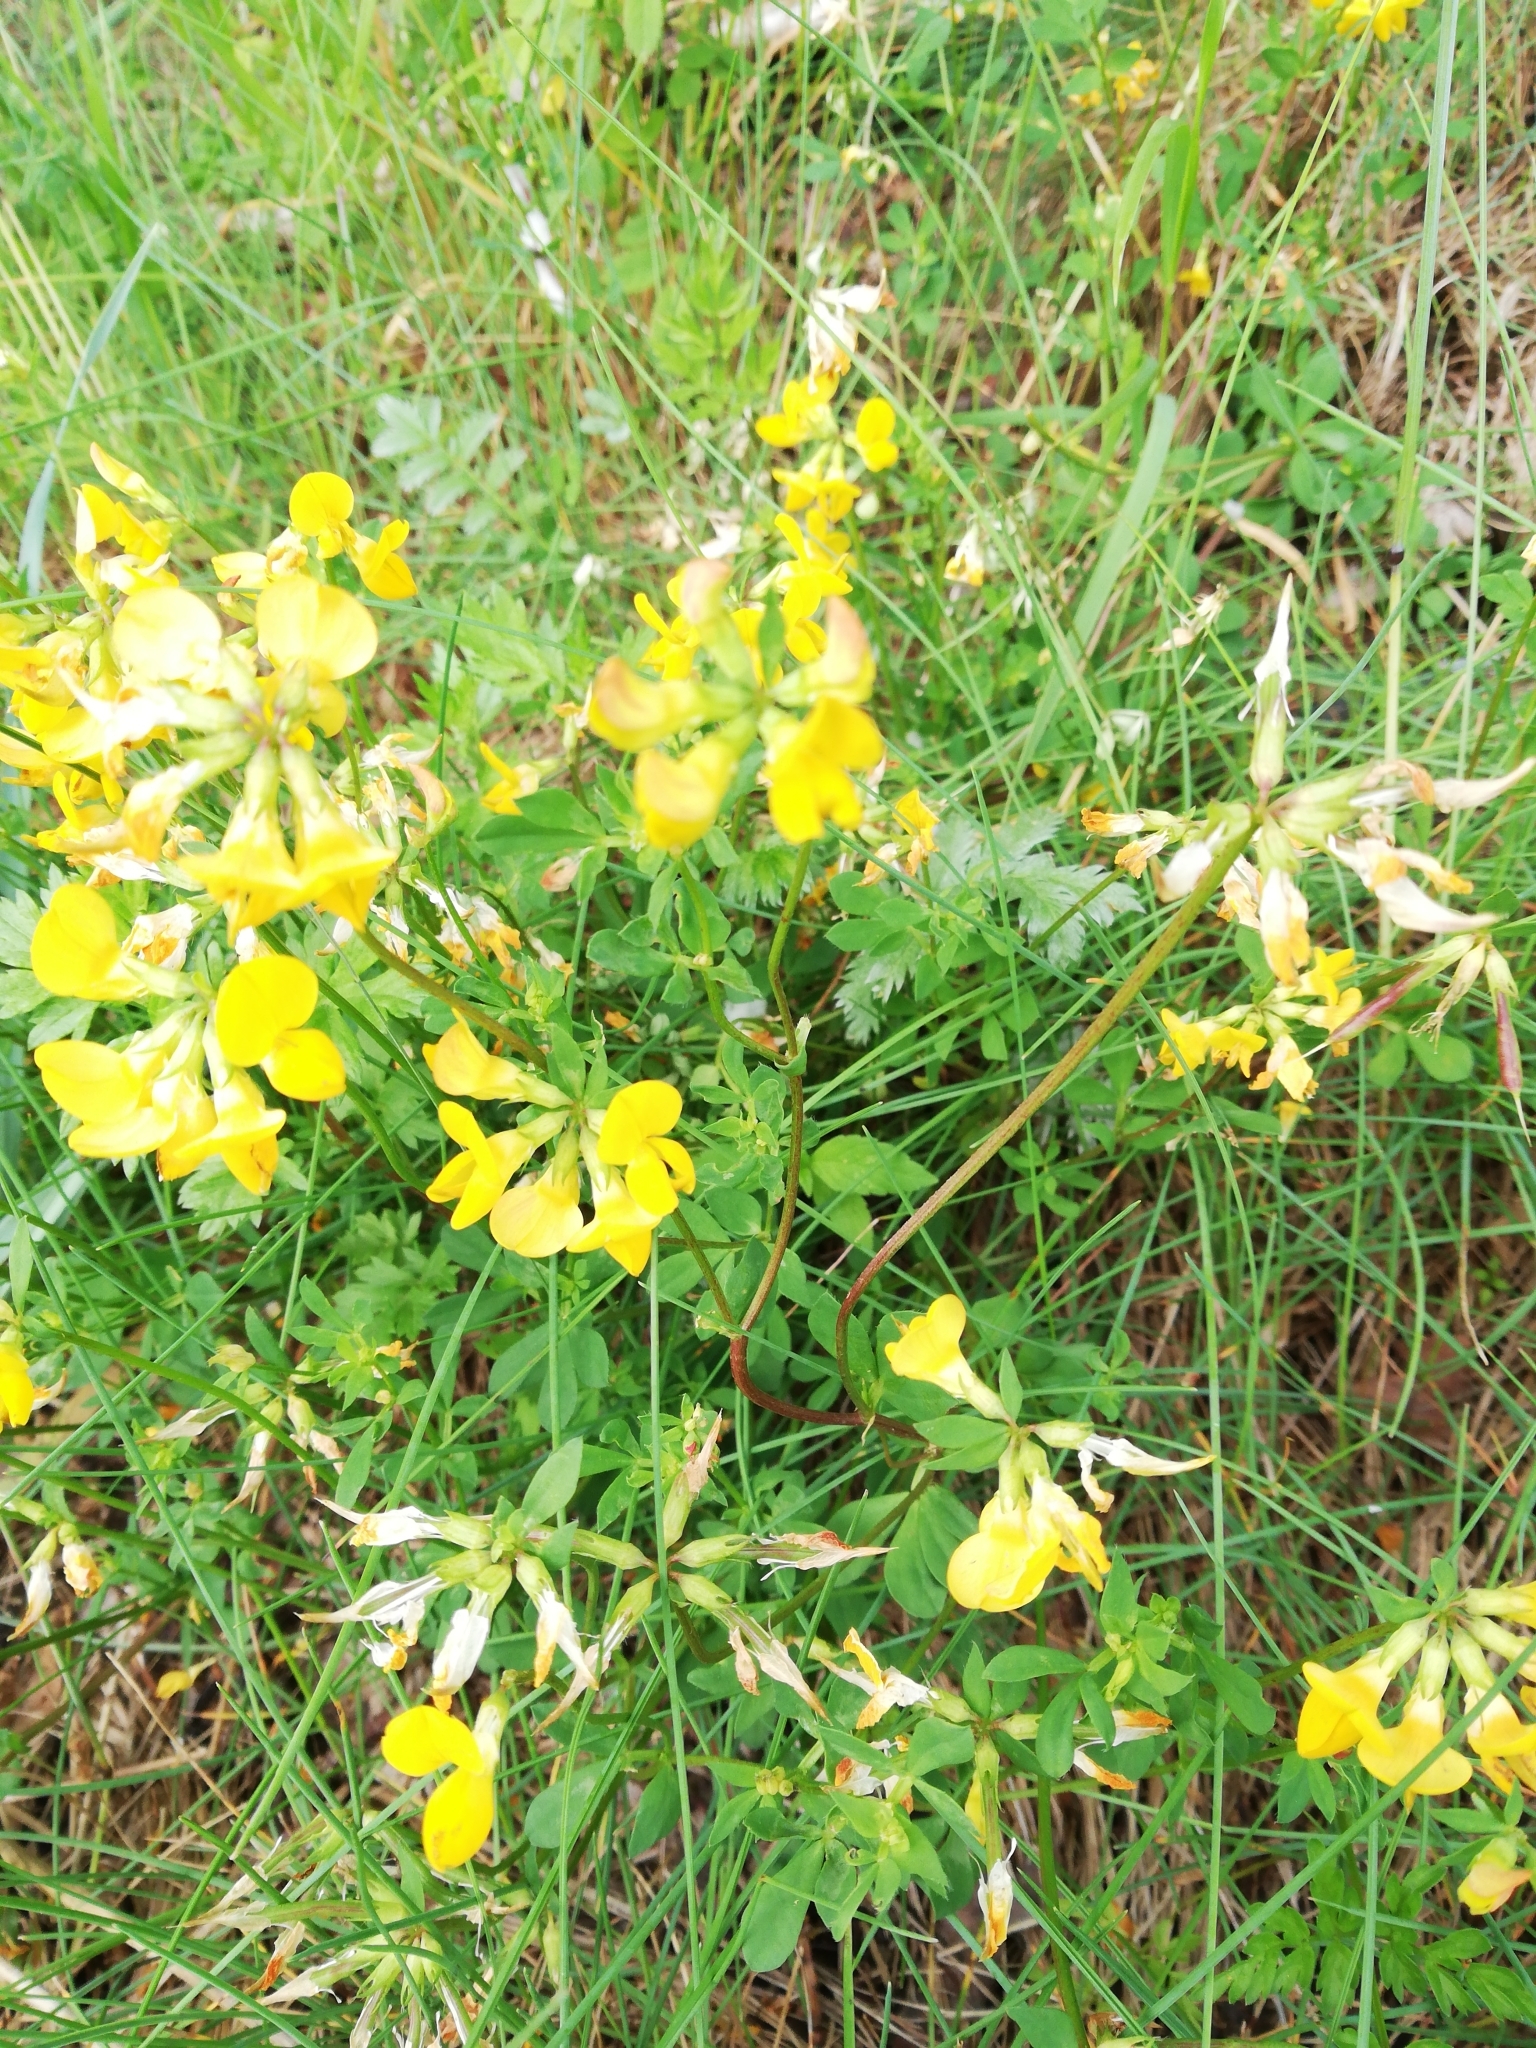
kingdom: Plantae
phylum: Tracheophyta
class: Magnoliopsida
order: Fabales
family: Fabaceae
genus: Lotus
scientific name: Lotus corniculatus
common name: Common bird's-foot-trefoil
